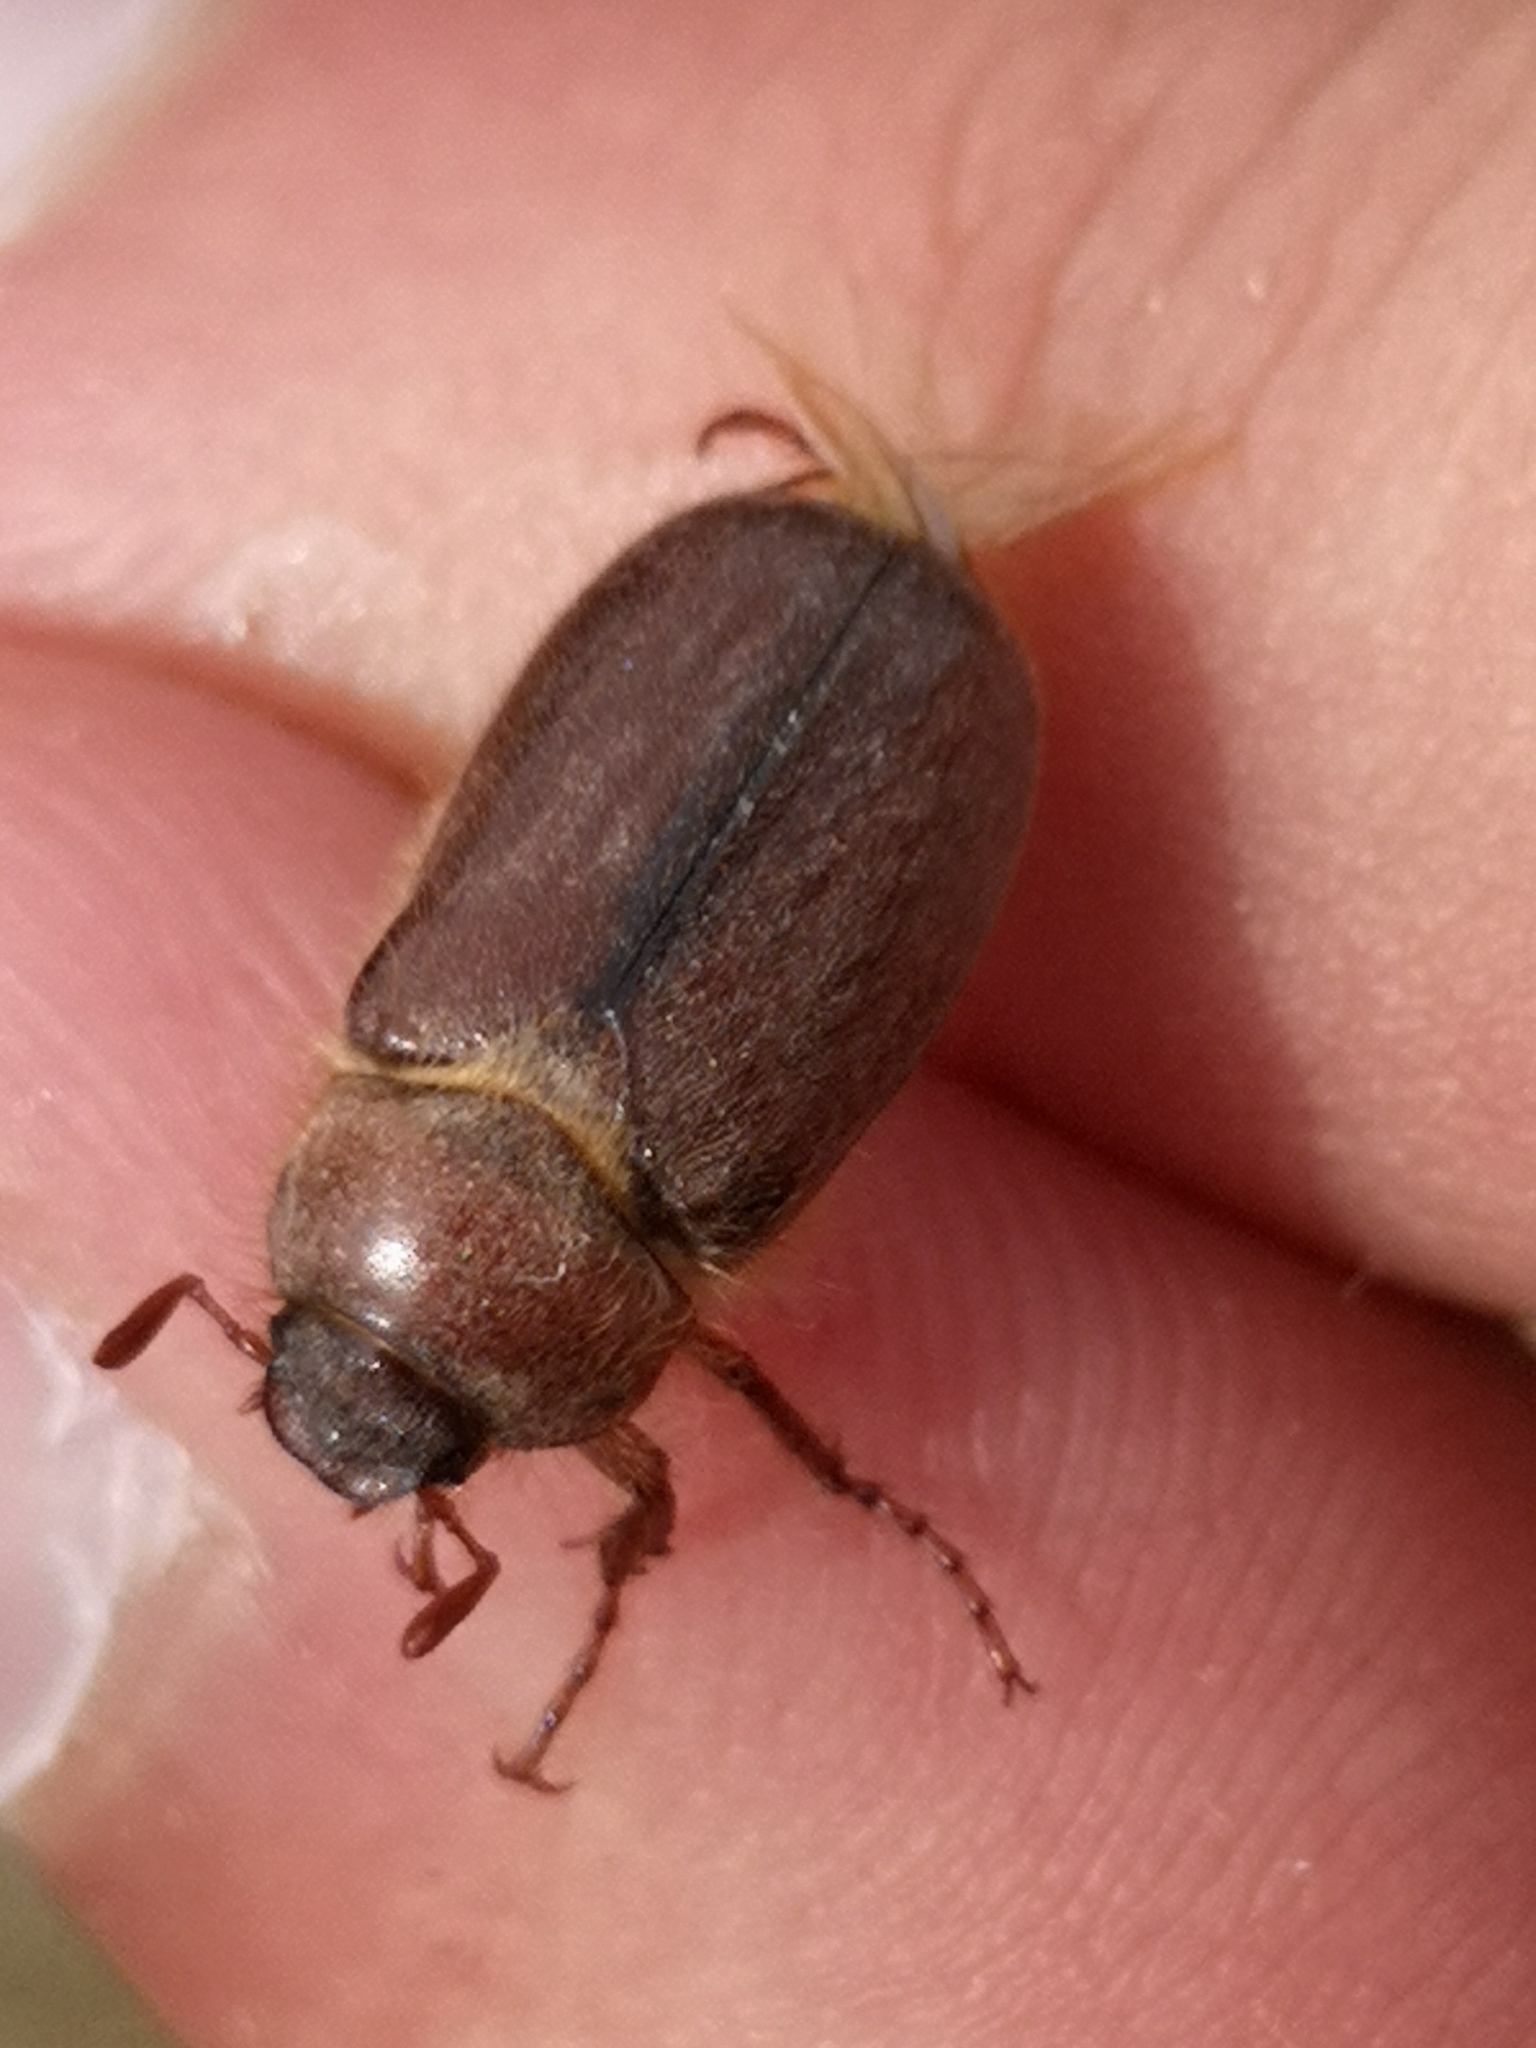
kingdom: Animalia
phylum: Arthropoda
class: Insecta
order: Coleoptera
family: Scarabaeidae
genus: Amphimallon
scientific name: Amphimallon assimile
